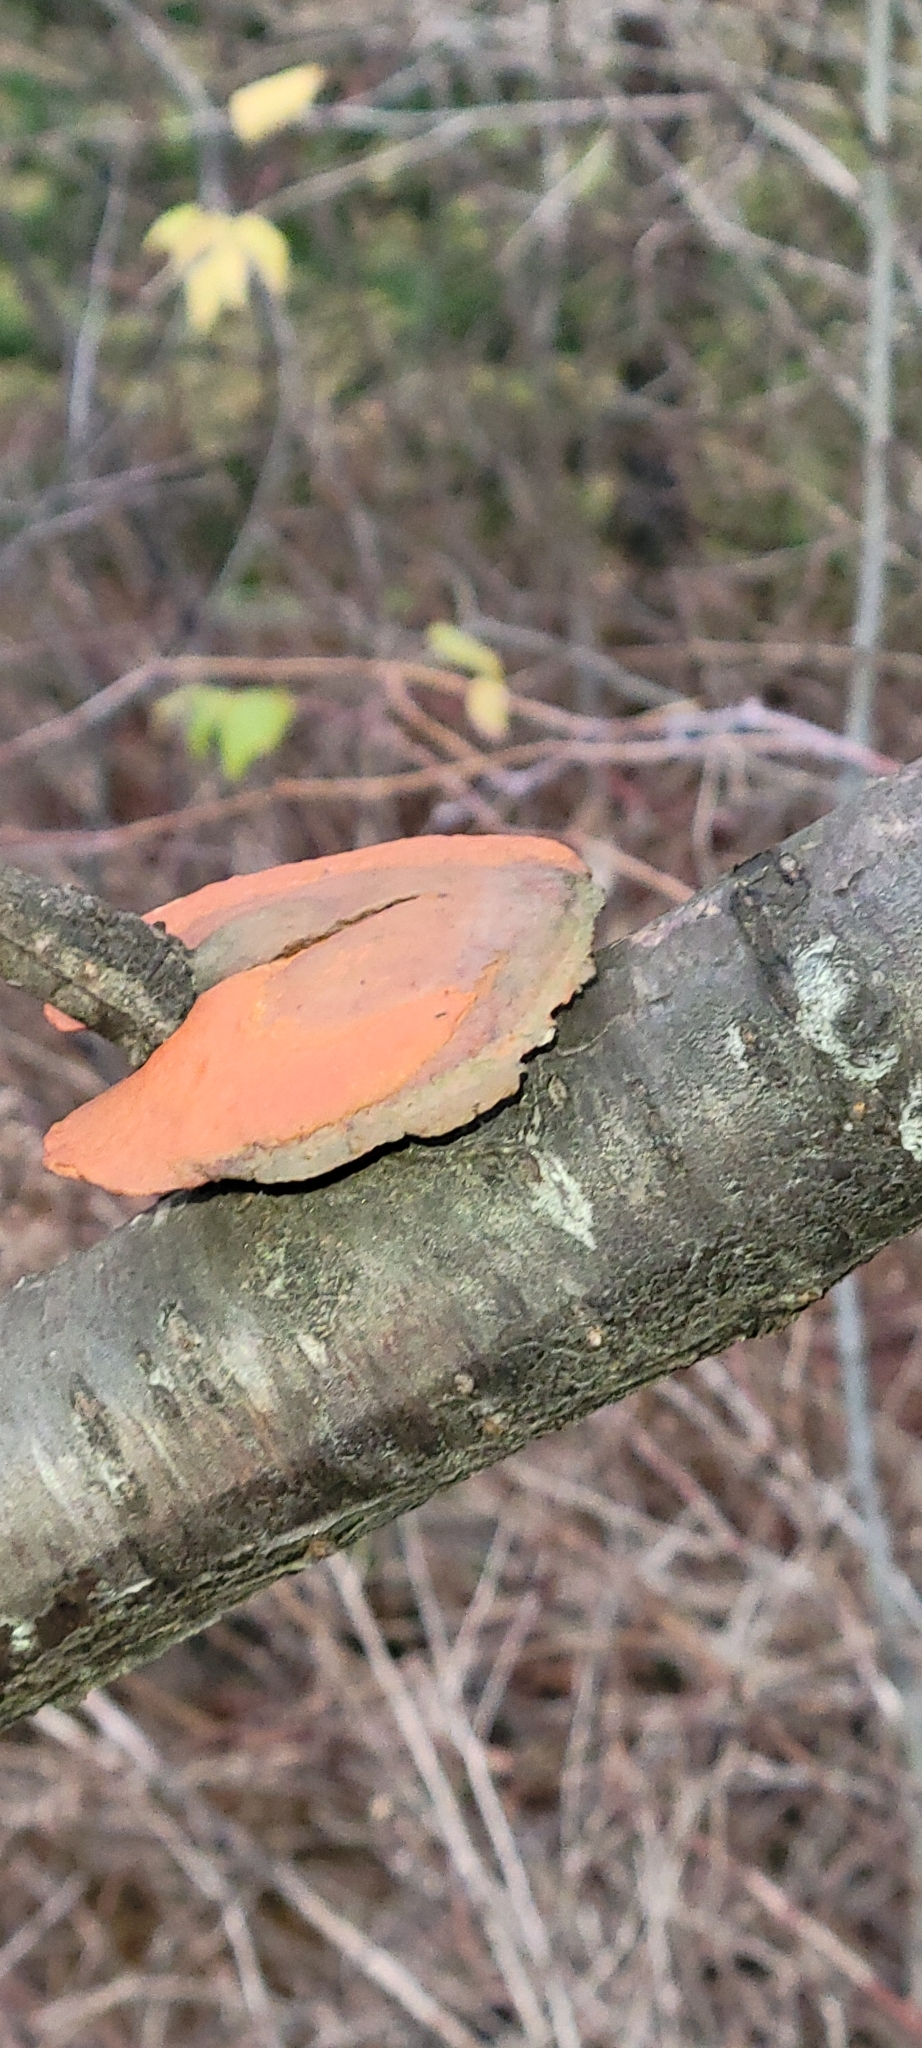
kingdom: Fungi
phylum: Basidiomycota
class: Agaricomycetes
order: Polyporales
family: Polyporaceae
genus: Trametes
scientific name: Trametes cinnabarina
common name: Northern cinnabar polypore
